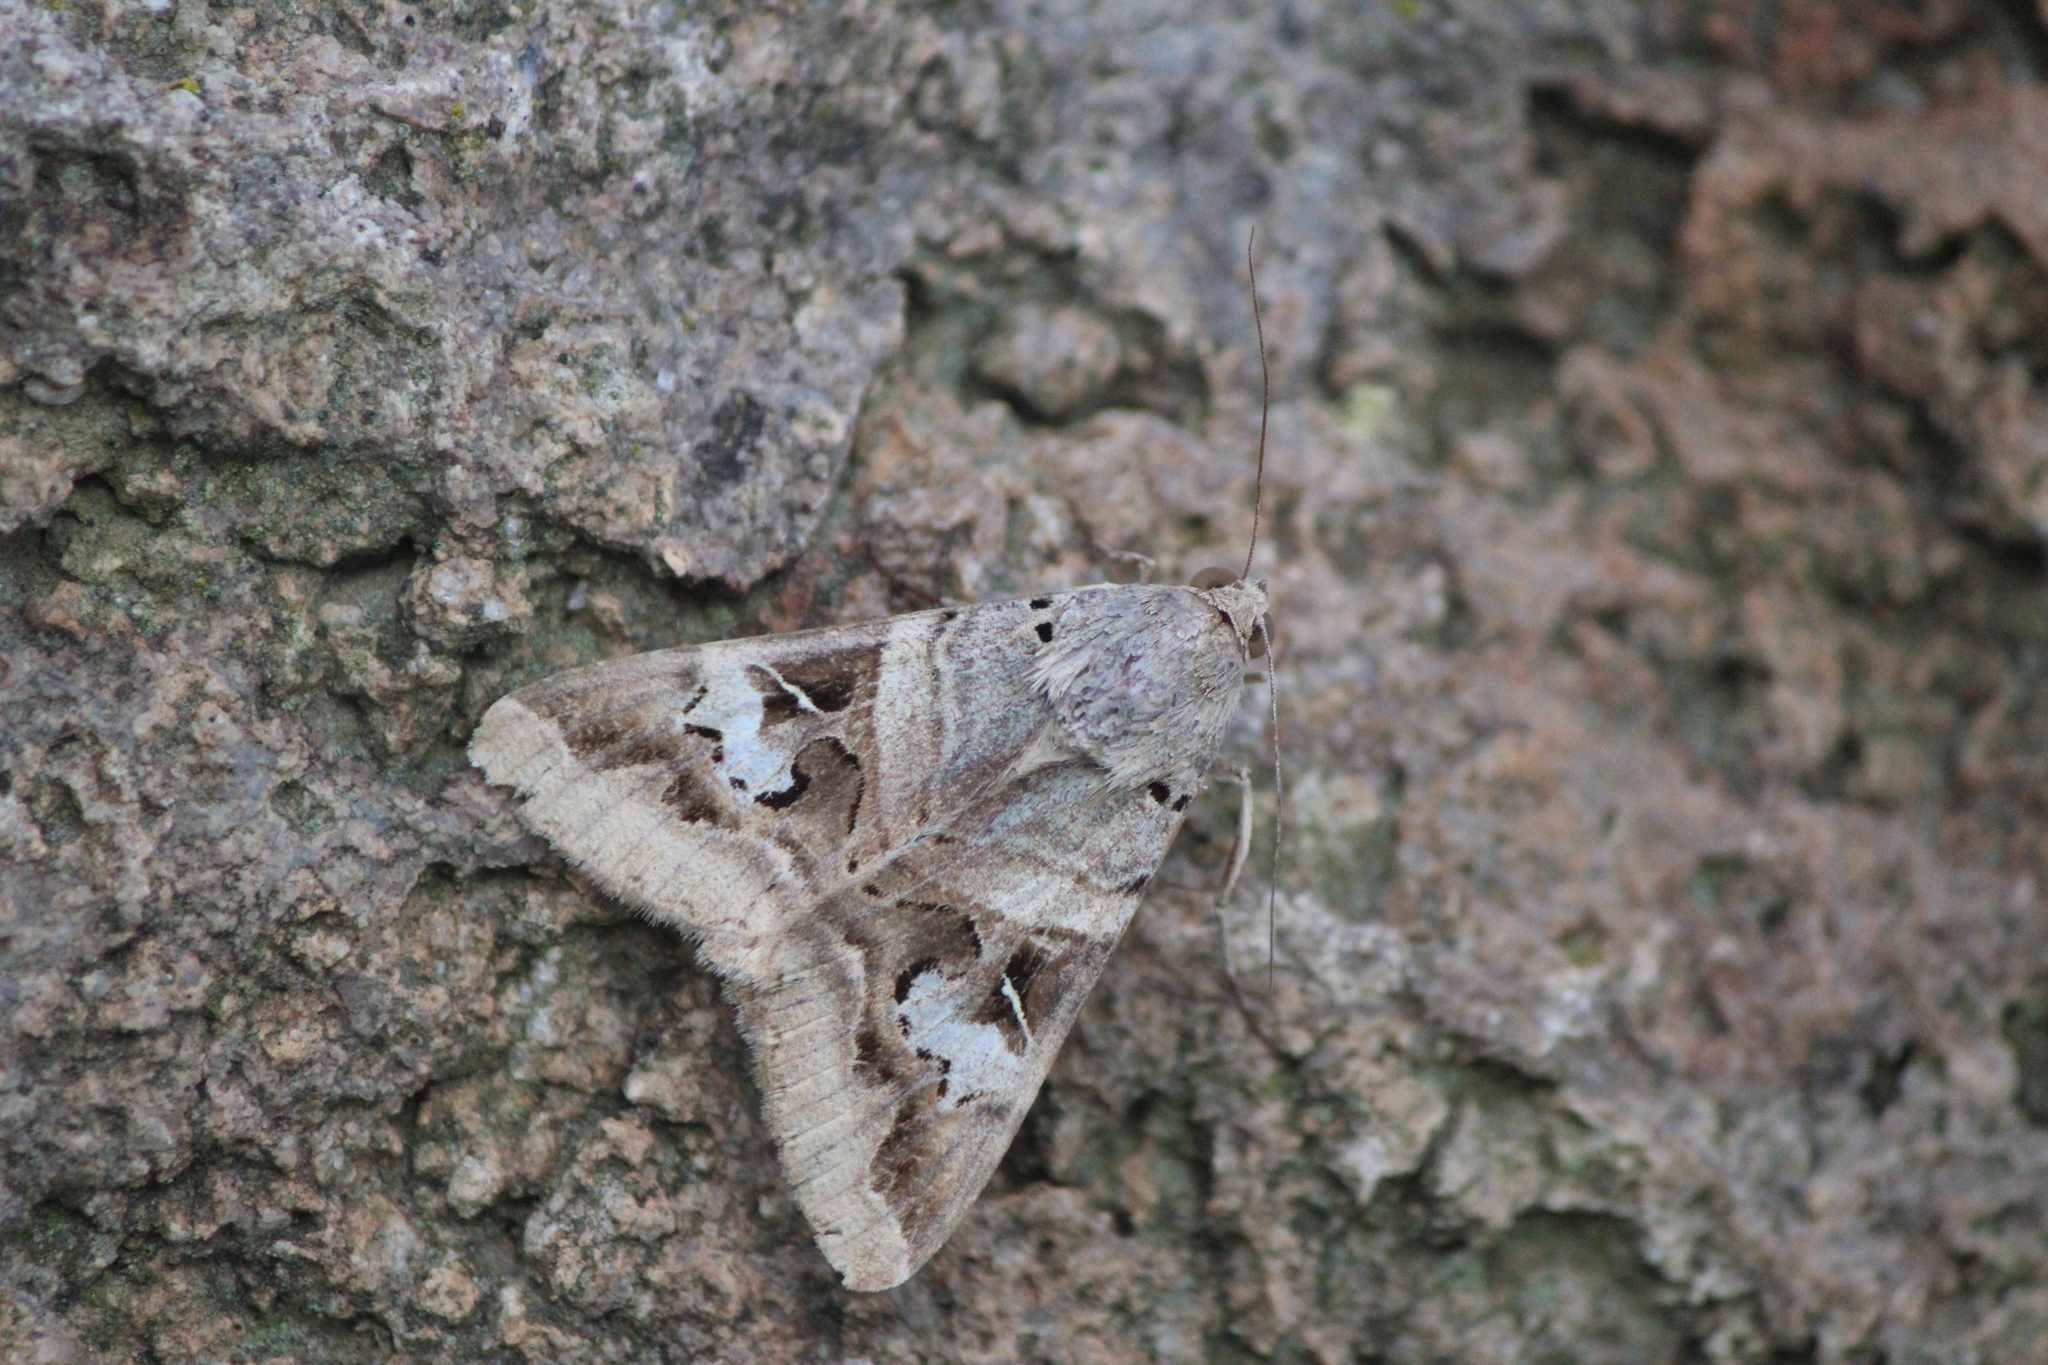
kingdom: Animalia
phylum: Arthropoda
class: Insecta
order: Lepidoptera
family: Erebidae
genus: Melipotis
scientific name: Melipotis indomita
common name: Moth
